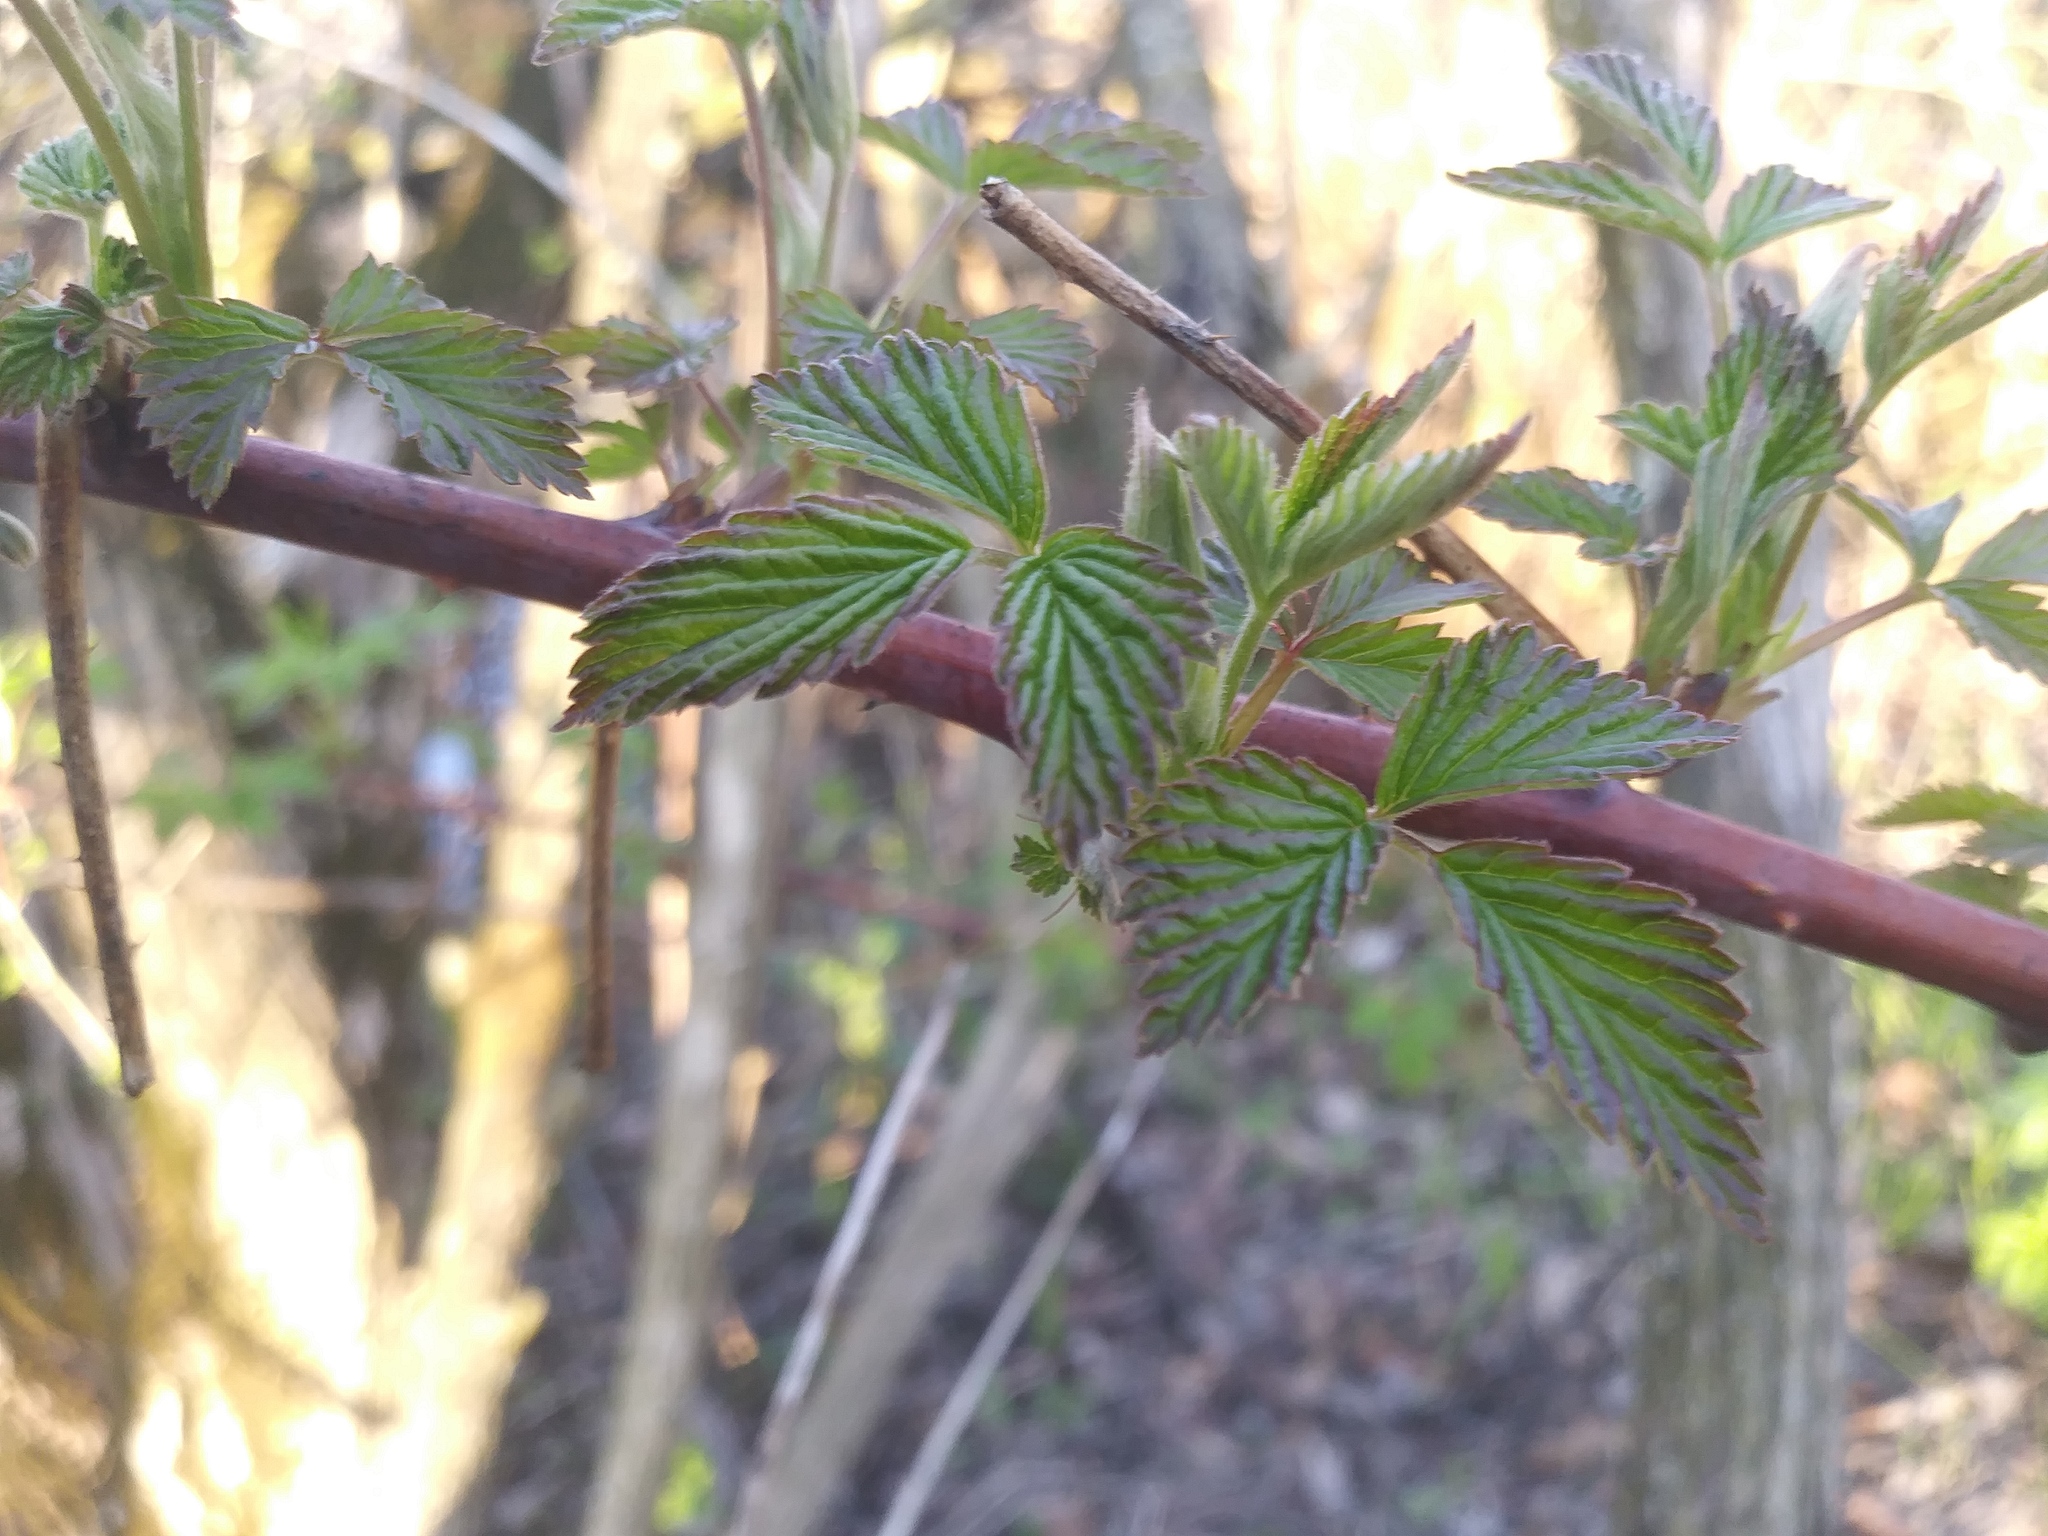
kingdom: Plantae
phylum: Tracheophyta
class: Magnoliopsida
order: Rosales
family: Rosaceae
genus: Rubus
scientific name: Rubus occidentalis
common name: Black raspberry
